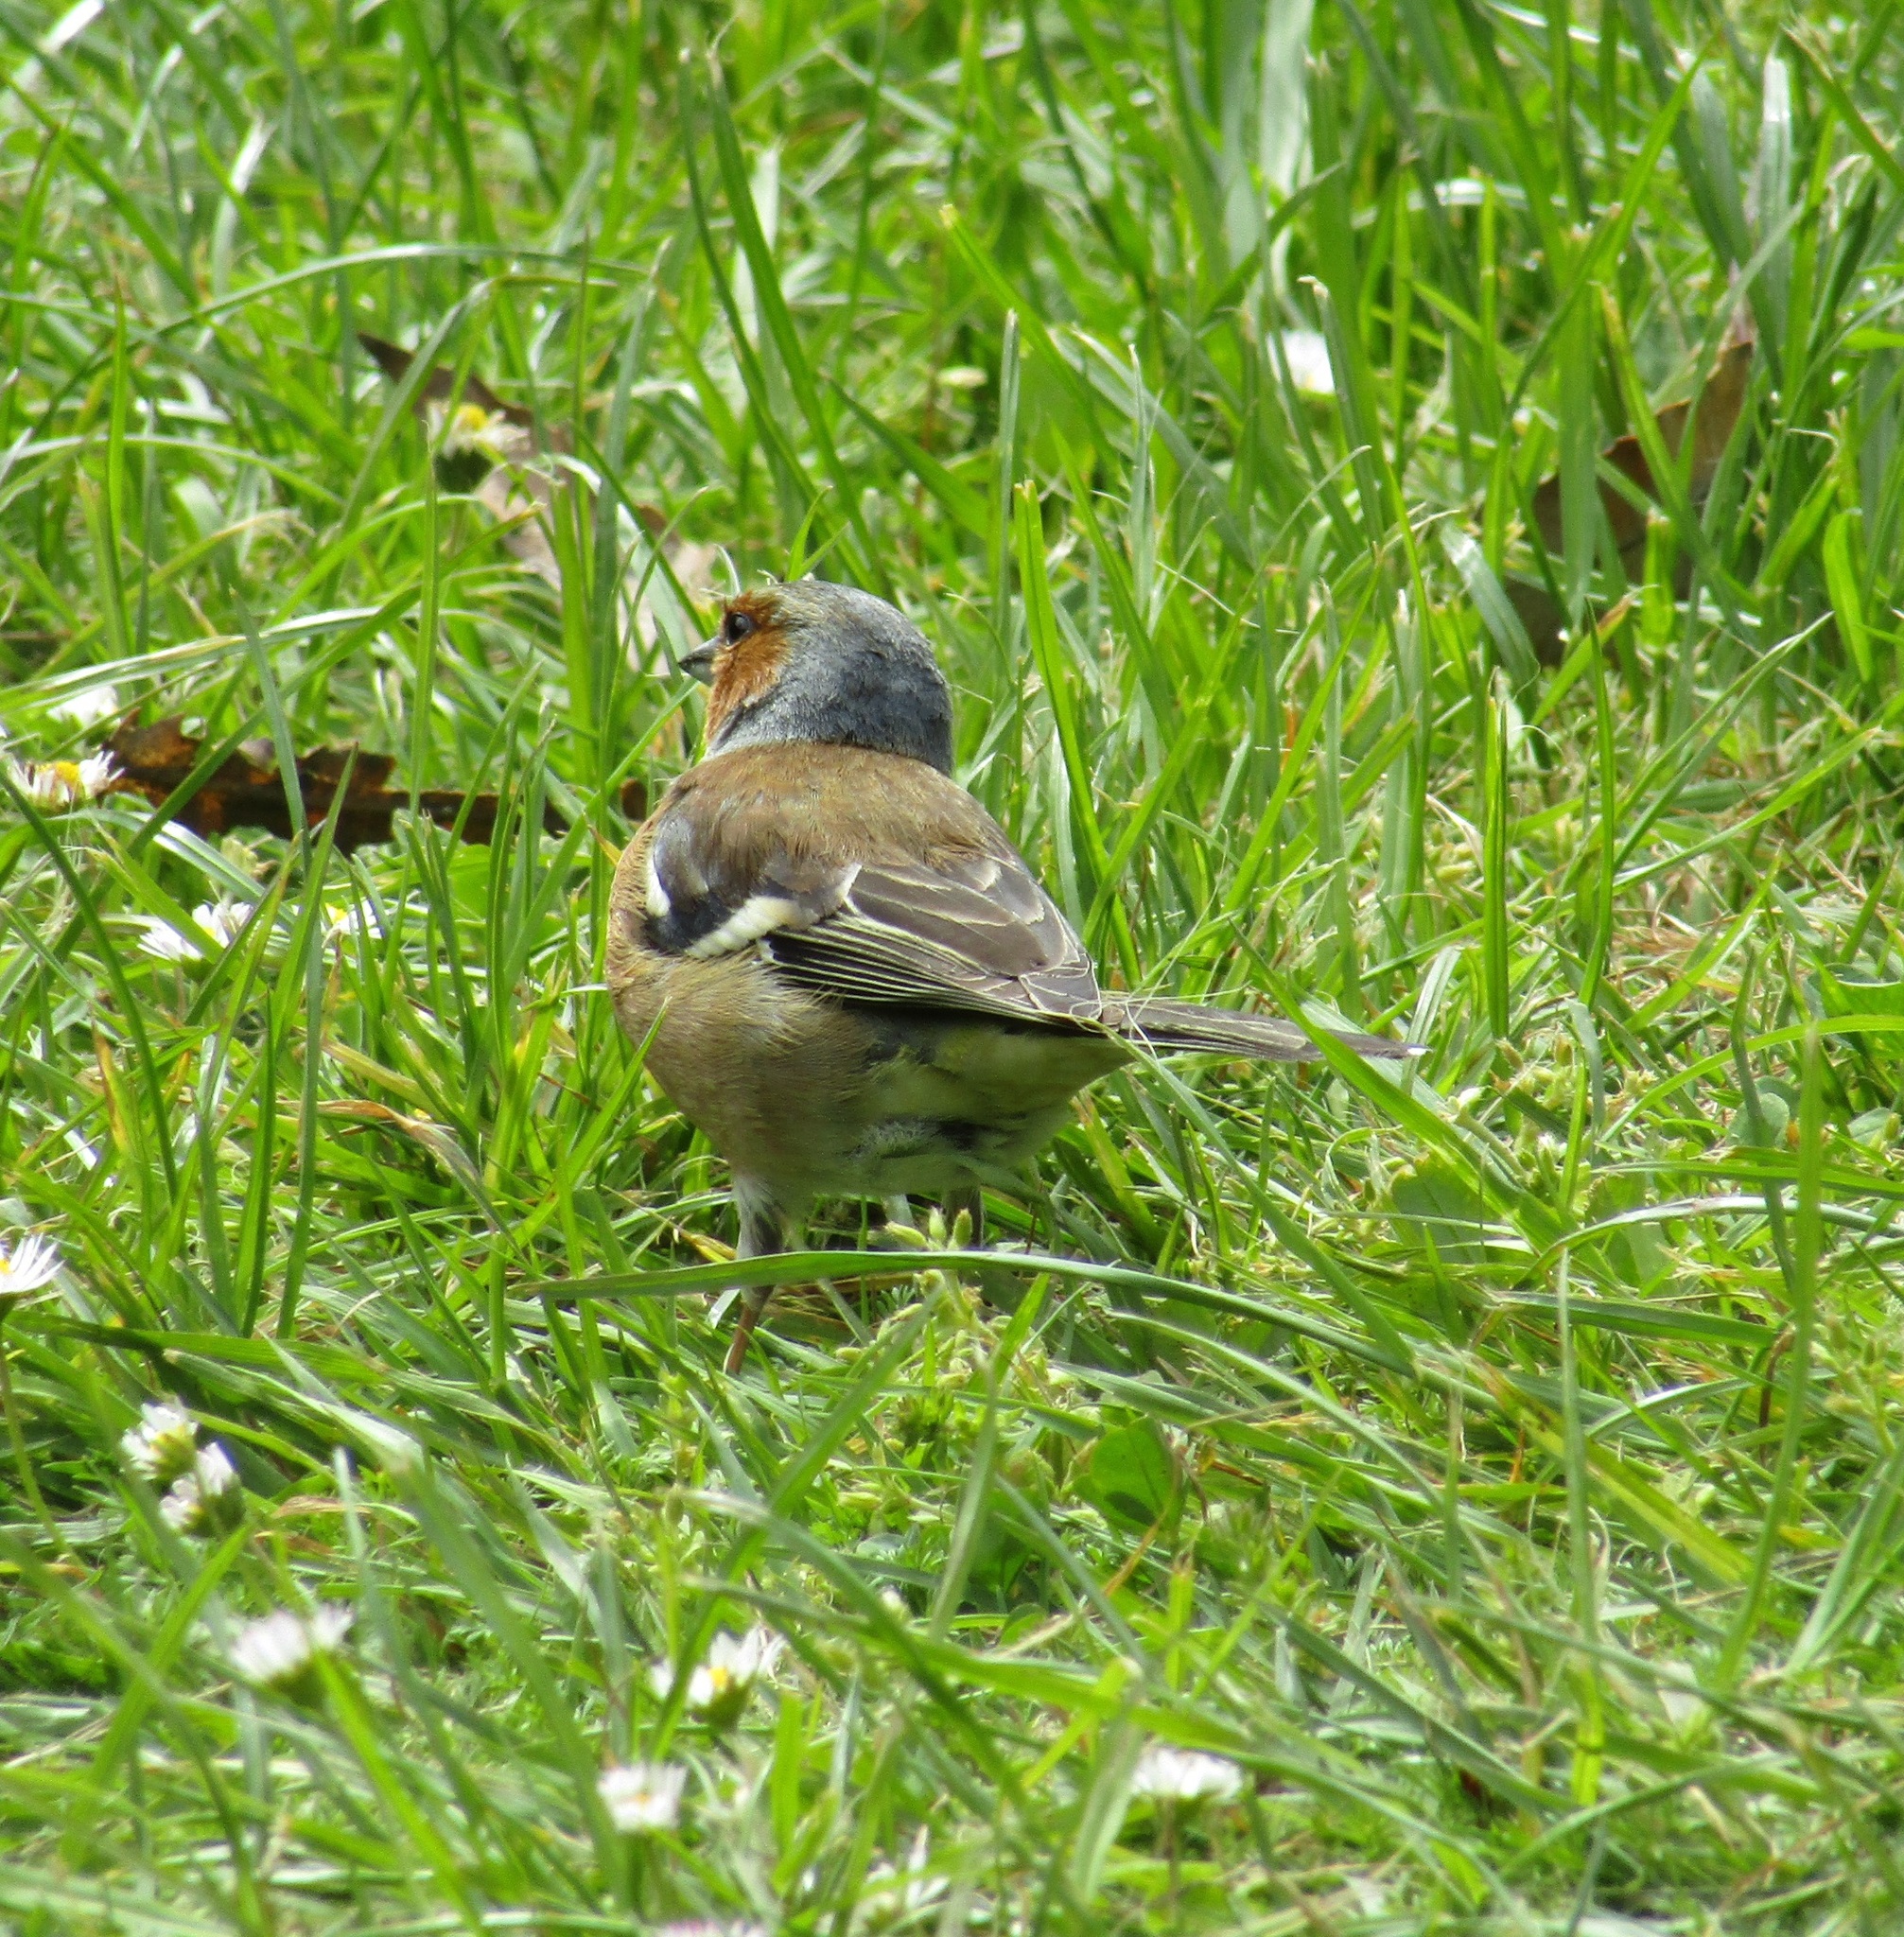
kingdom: Animalia
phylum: Chordata
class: Aves
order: Passeriformes
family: Fringillidae
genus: Fringilla
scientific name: Fringilla coelebs
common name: Common chaffinch
